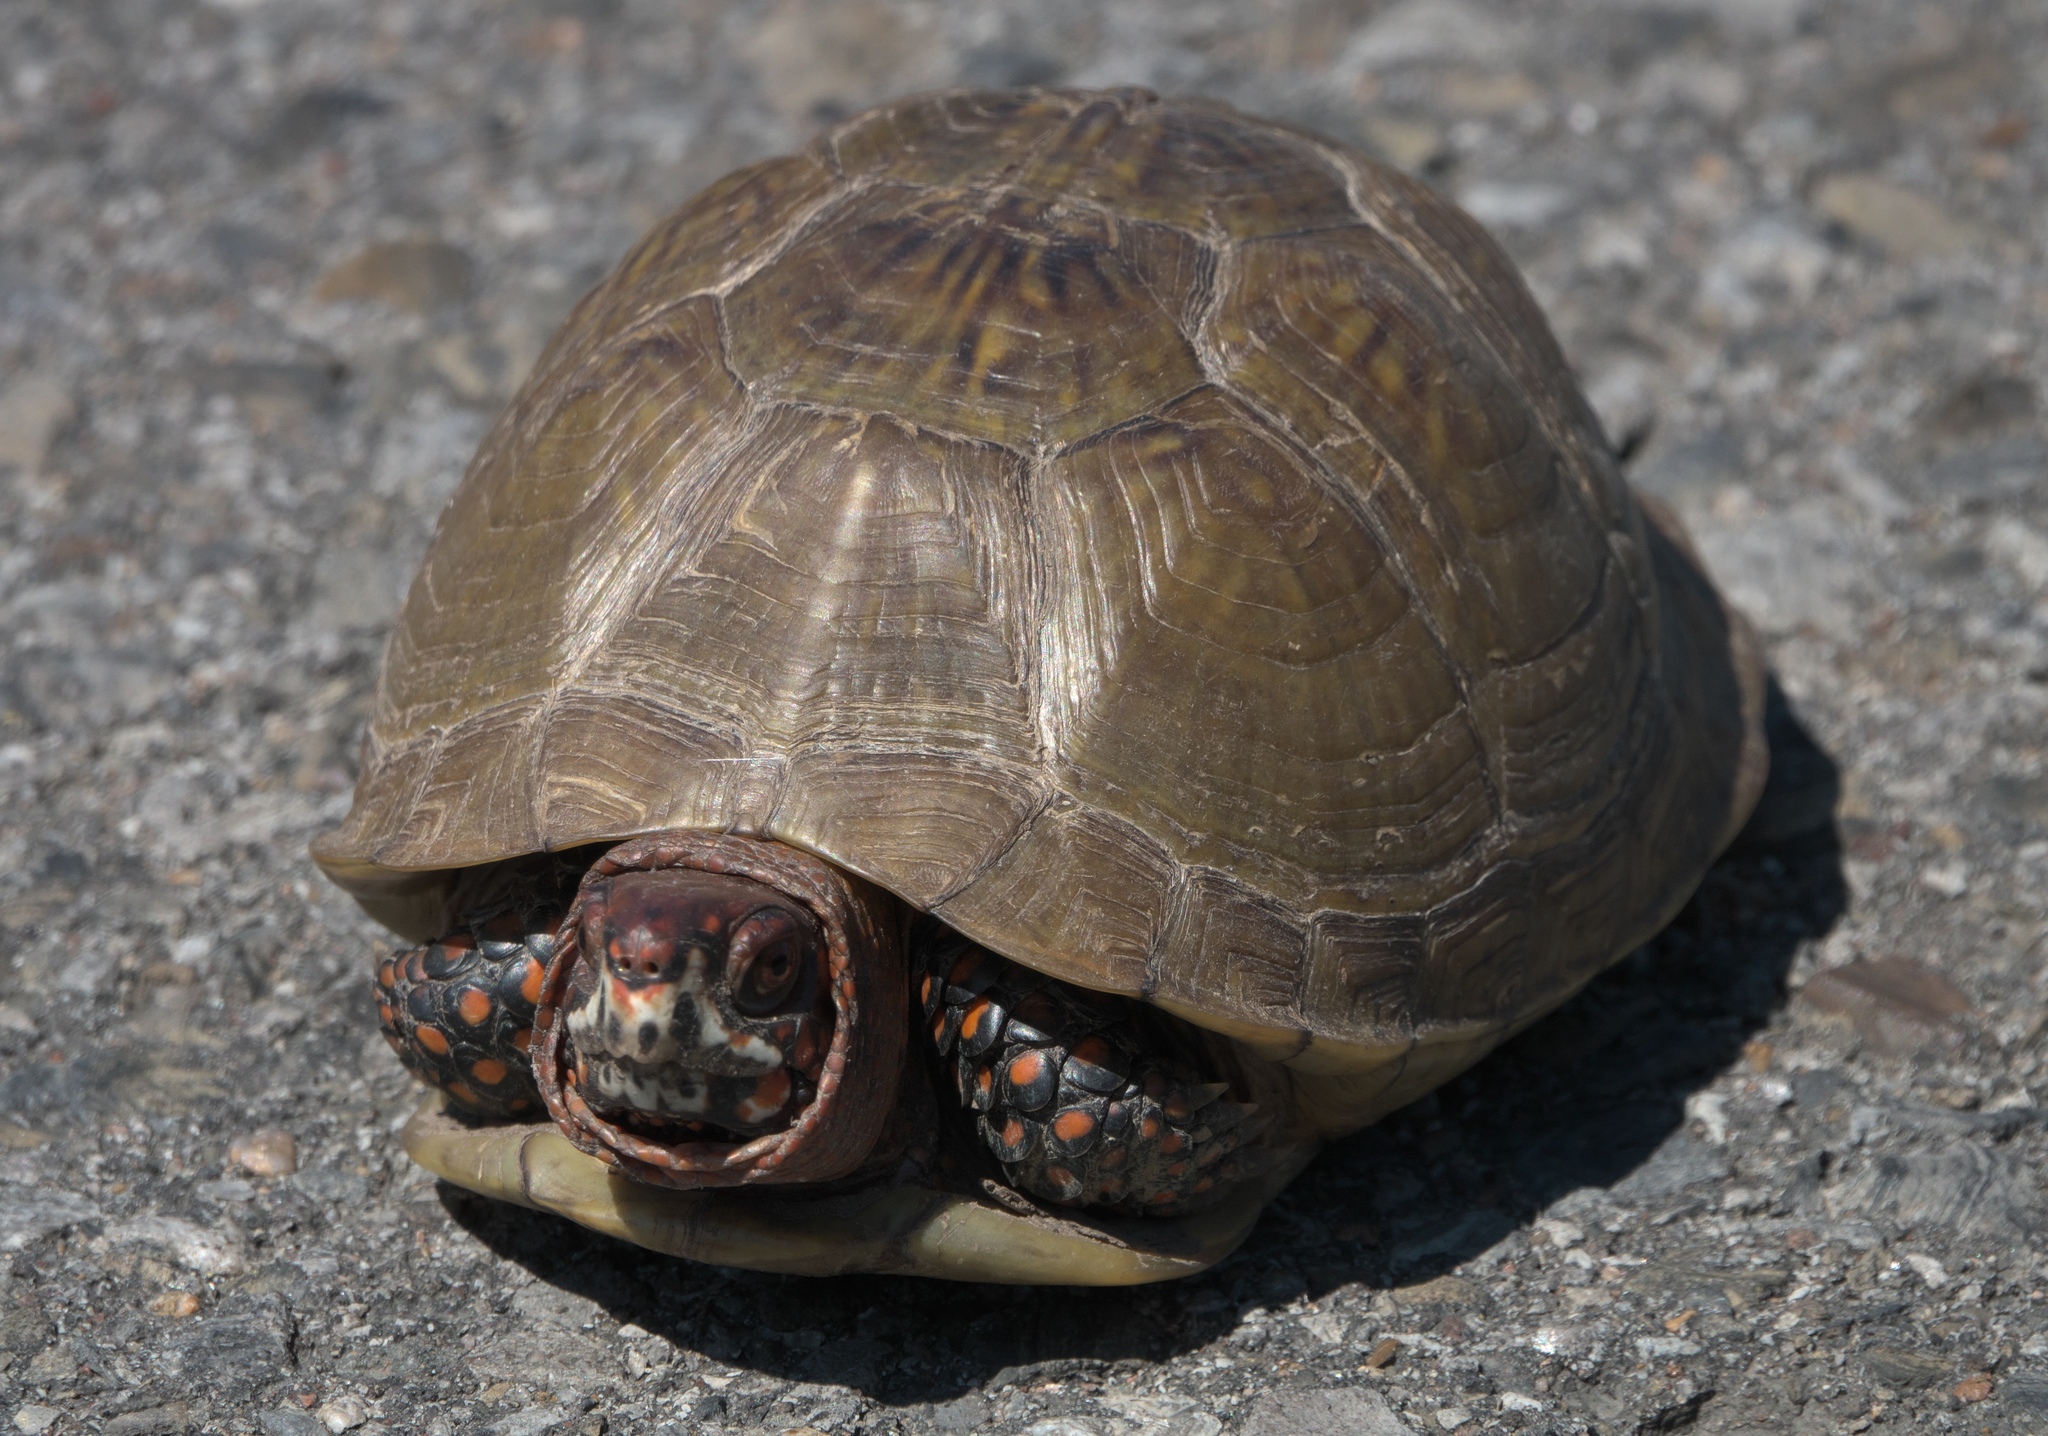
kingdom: Animalia
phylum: Chordata
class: Testudines
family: Emydidae
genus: Terrapene
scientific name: Terrapene carolina
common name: Common box turtle
